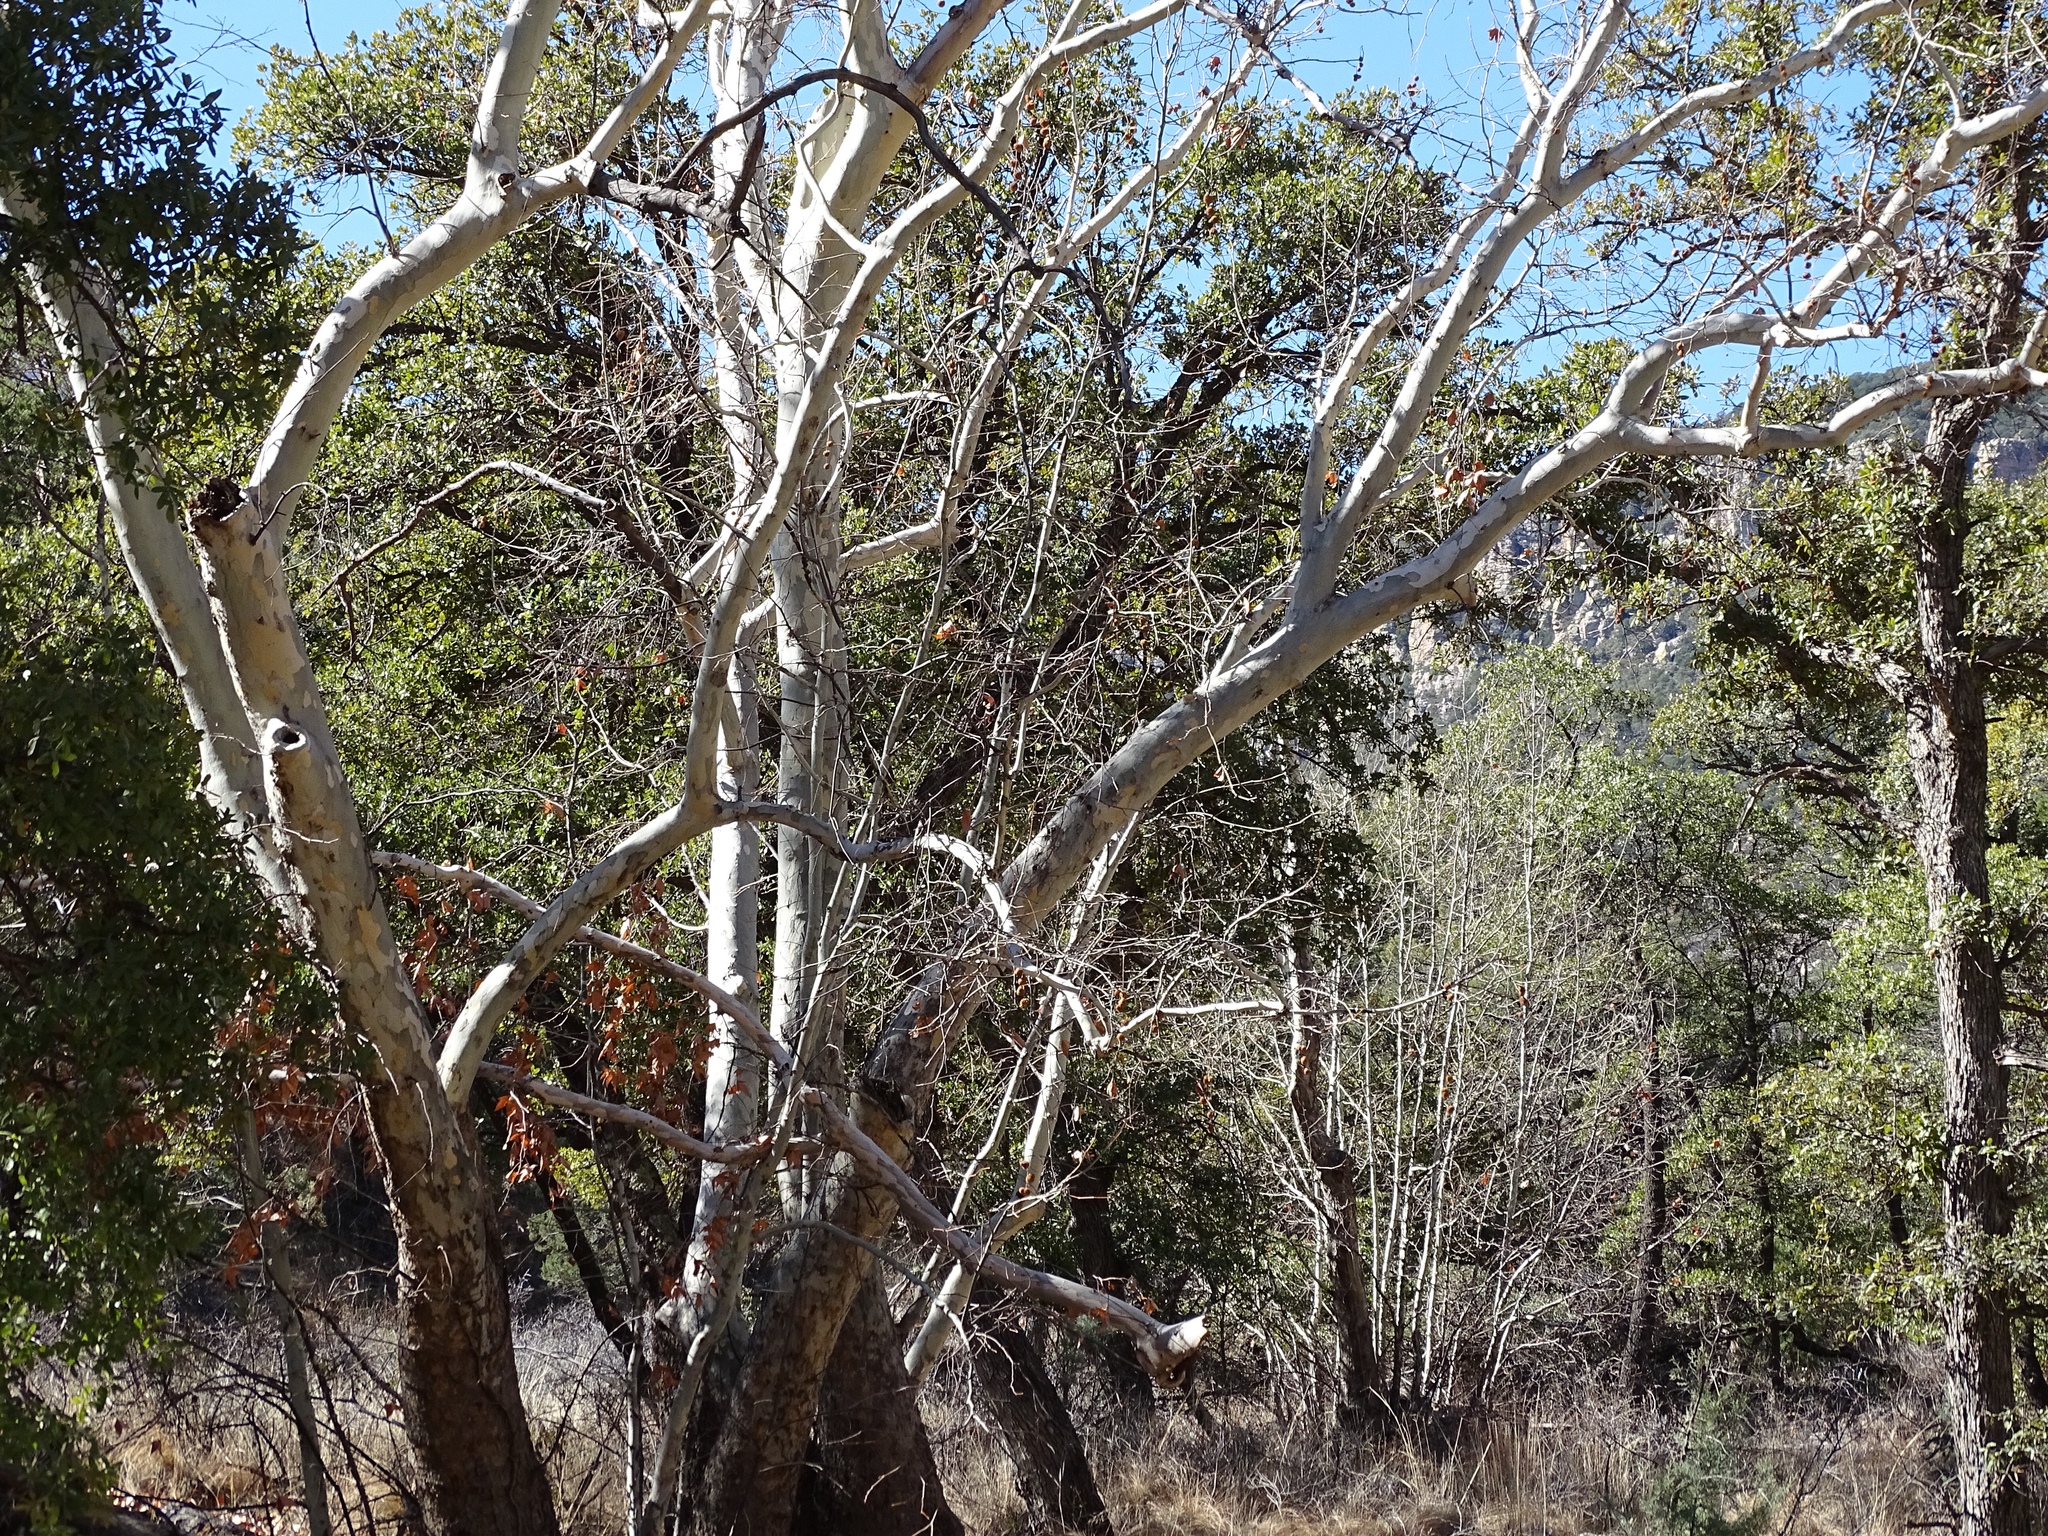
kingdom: Plantae
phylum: Tracheophyta
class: Magnoliopsida
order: Proteales
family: Platanaceae
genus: Platanus
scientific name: Platanus wrightii
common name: Arizona sycamore
